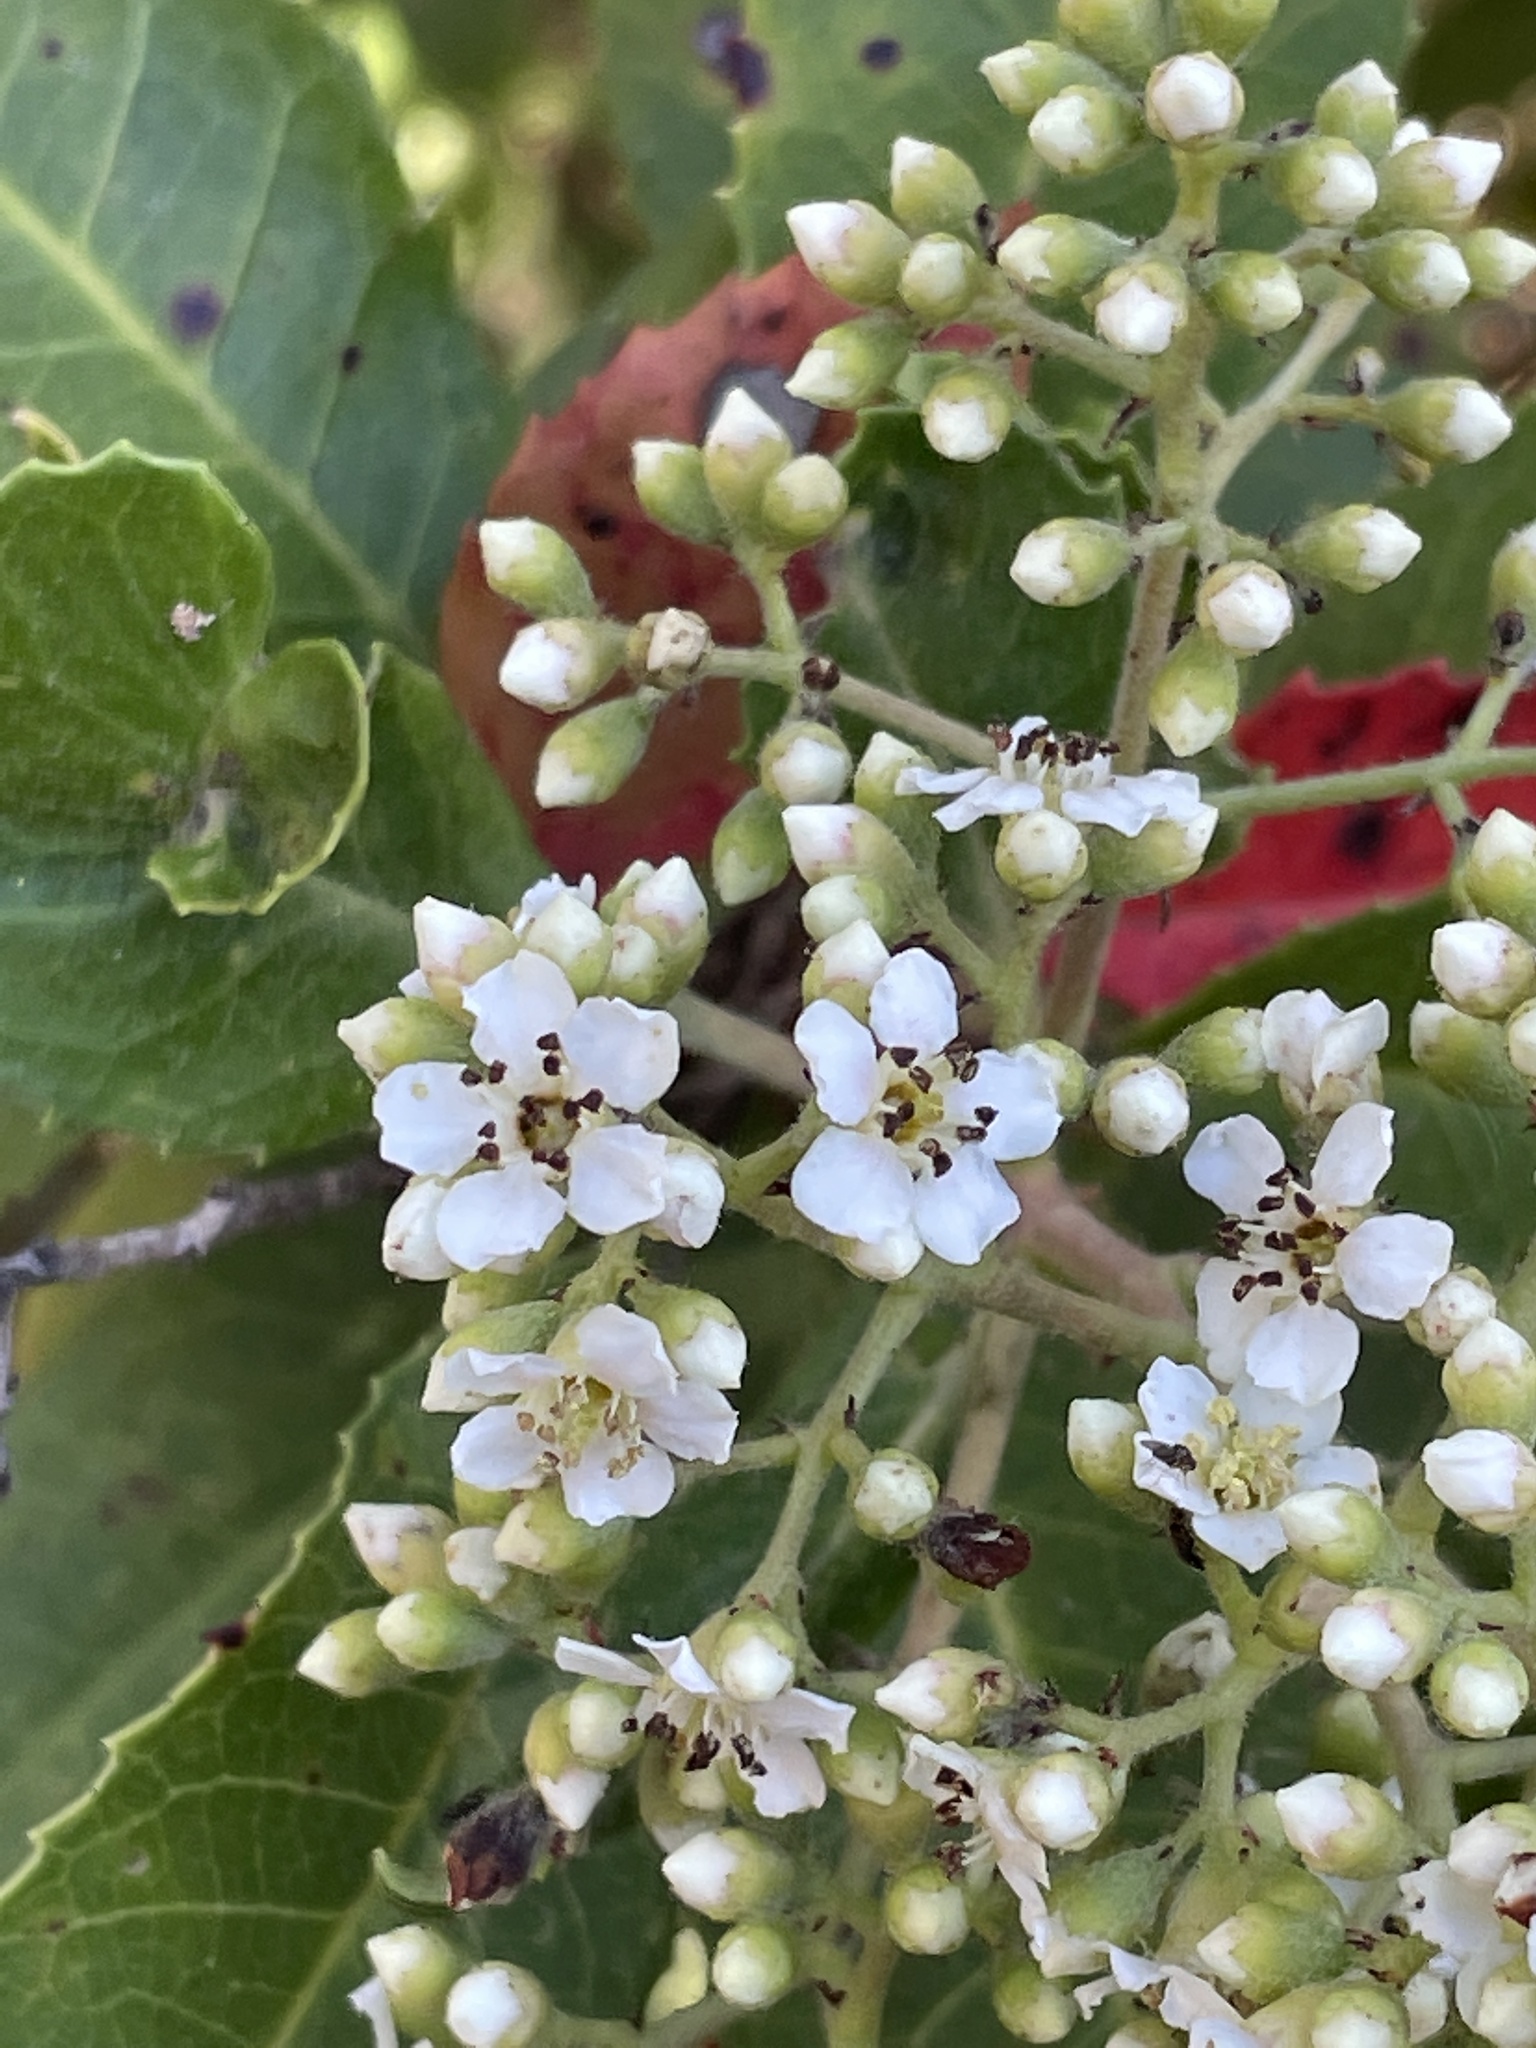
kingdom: Plantae
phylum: Tracheophyta
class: Magnoliopsida
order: Rosales
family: Rosaceae
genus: Heteromeles
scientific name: Heteromeles arbutifolia
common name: California-holly
